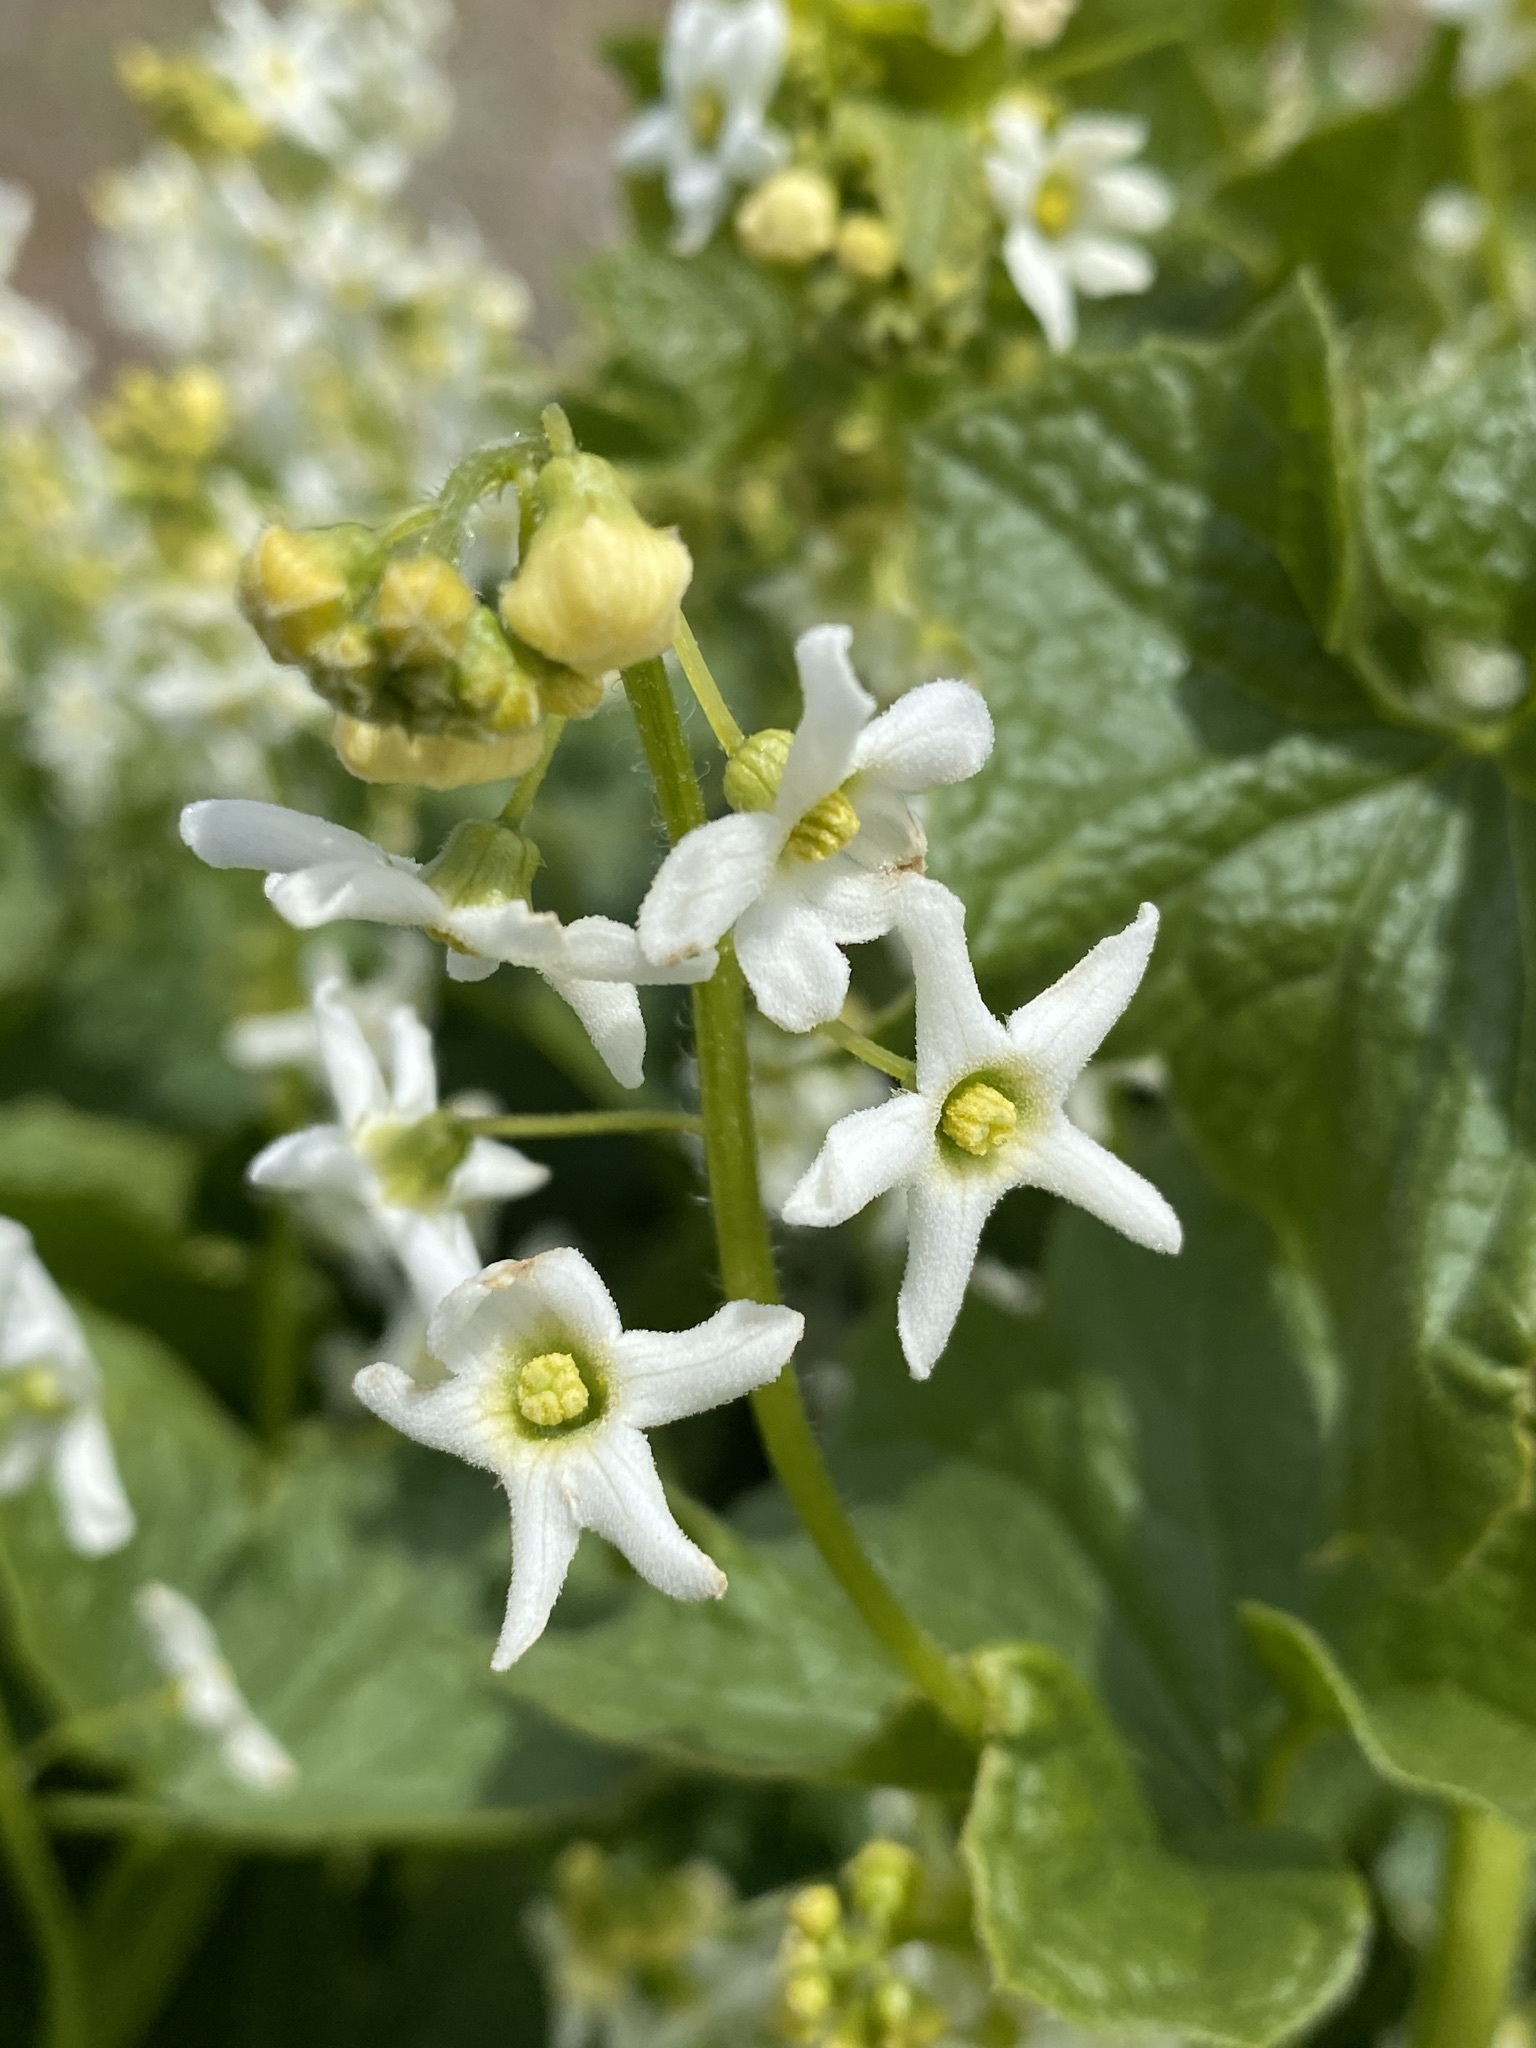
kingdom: Plantae
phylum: Tracheophyta
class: Magnoliopsida
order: Cucurbitales
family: Cucurbitaceae
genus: Marah
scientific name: Marah oregana
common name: Coastal manroot
